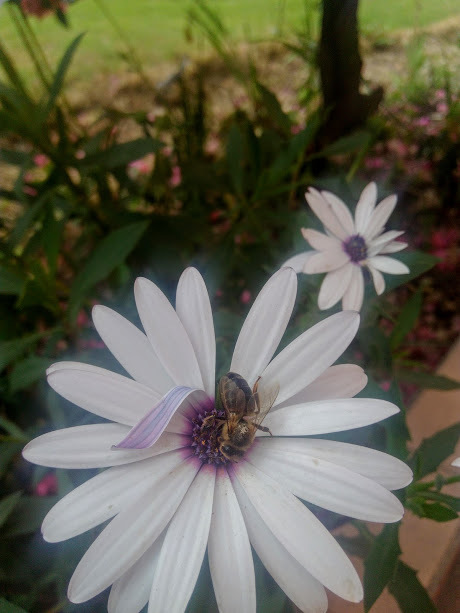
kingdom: Animalia
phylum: Arthropoda
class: Insecta
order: Hymenoptera
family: Apidae
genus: Apis
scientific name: Apis mellifera
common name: Honey bee
